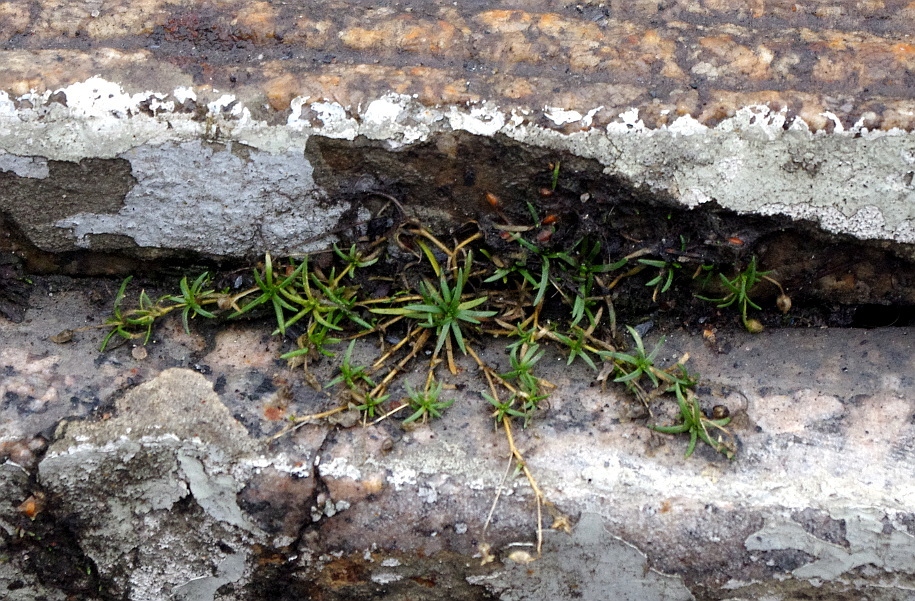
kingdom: Plantae
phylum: Tracheophyta
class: Magnoliopsida
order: Caryophyllales
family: Caryophyllaceae
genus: Sagina
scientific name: Sagina procumbens
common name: Procumbent pearlwort
